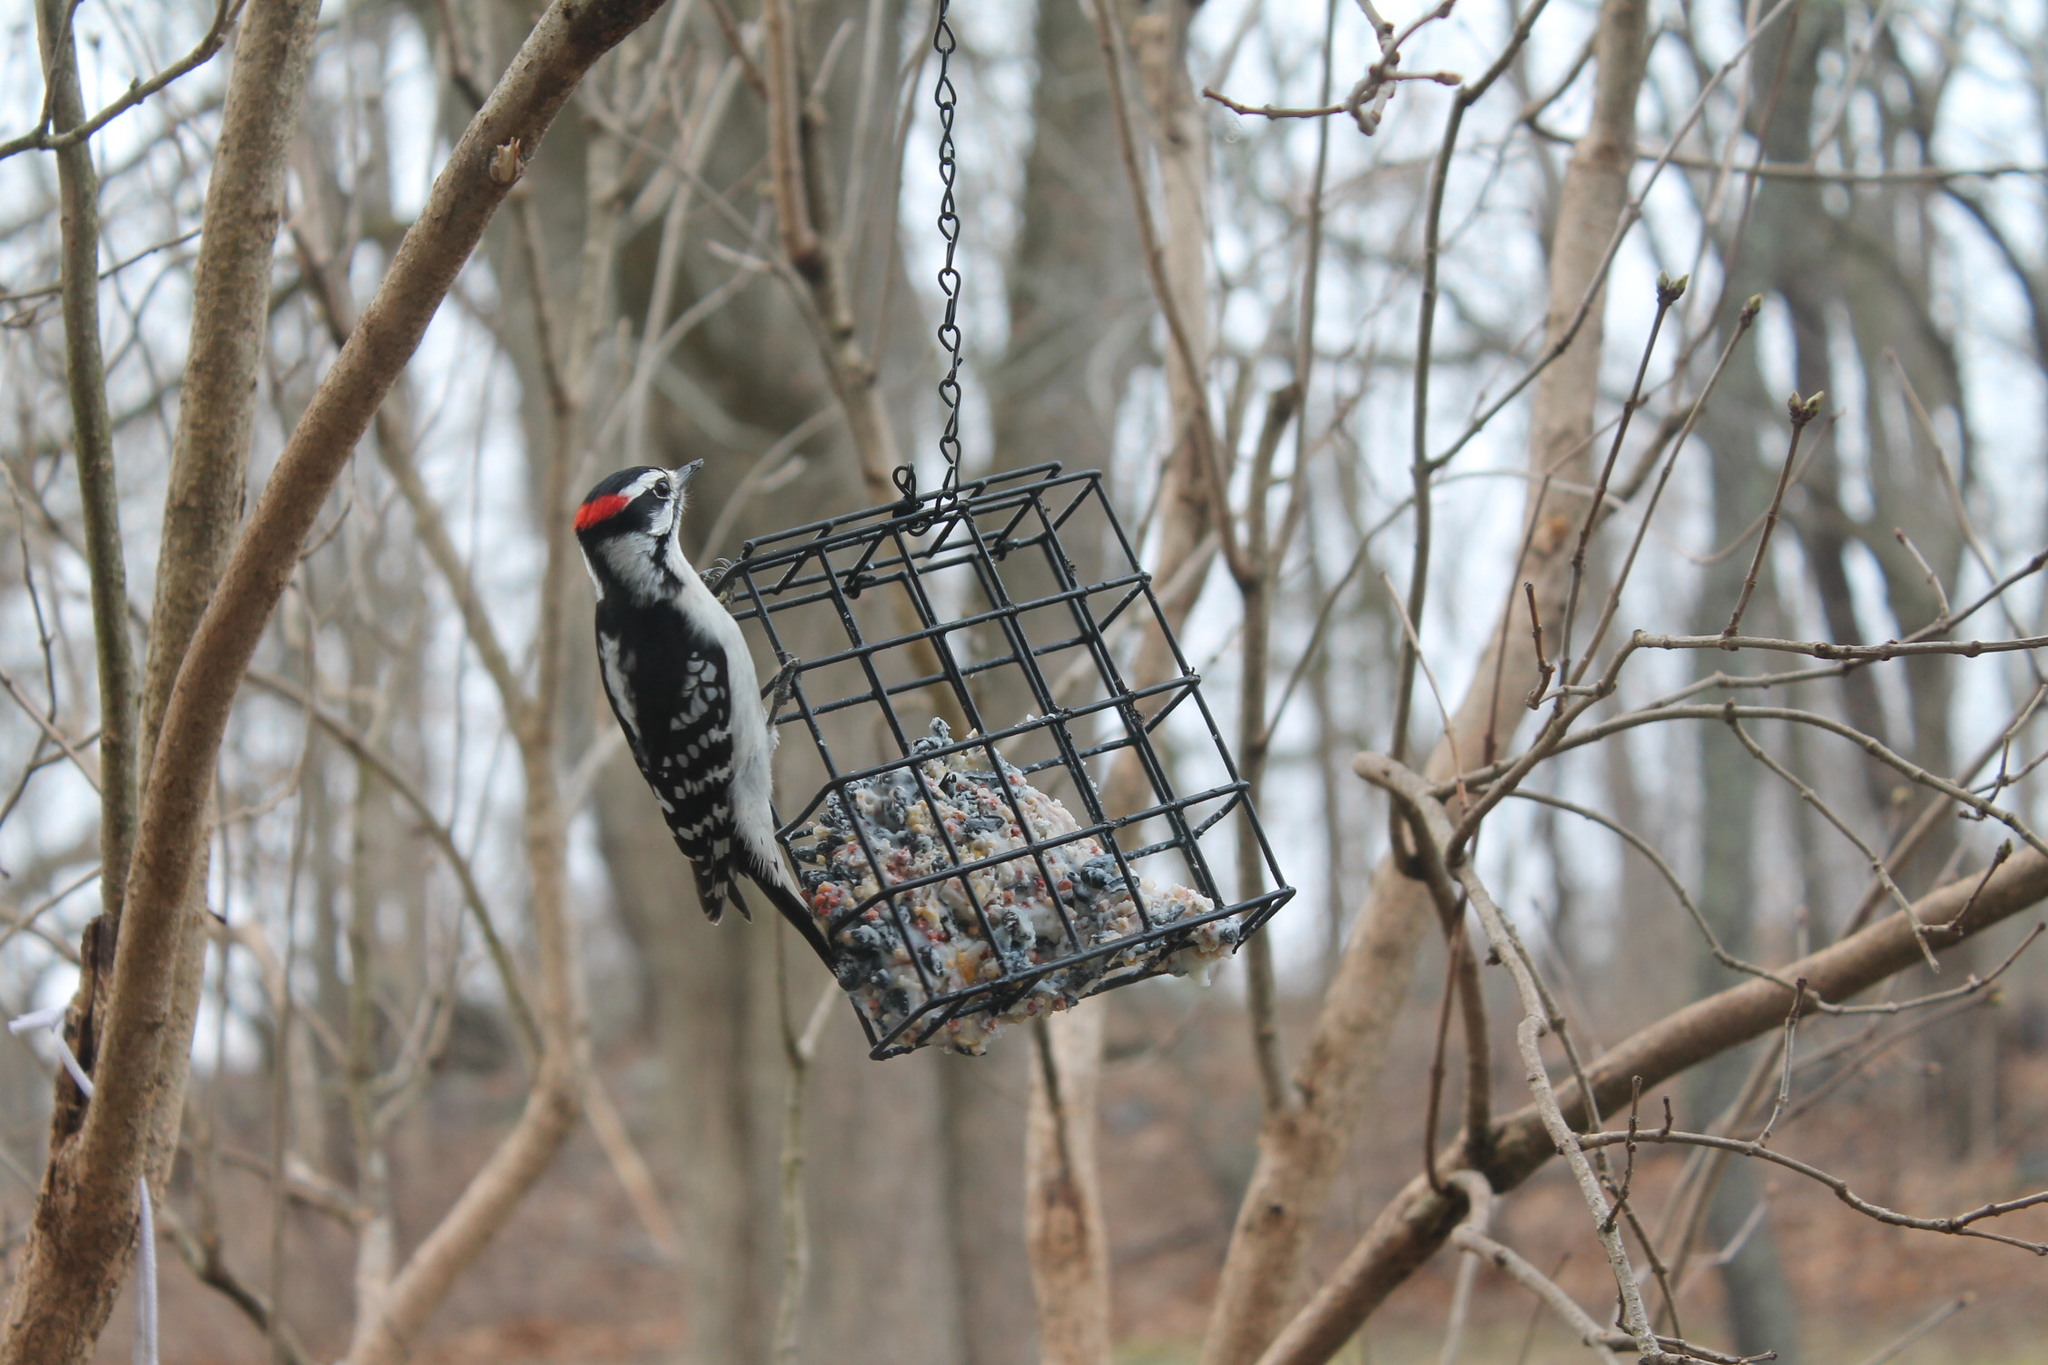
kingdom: Animalia
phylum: Chordata
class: Aves
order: Piciformes
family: Picidae
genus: Dryobates
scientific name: Dryobates pubescens
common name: Downy woodpecker
